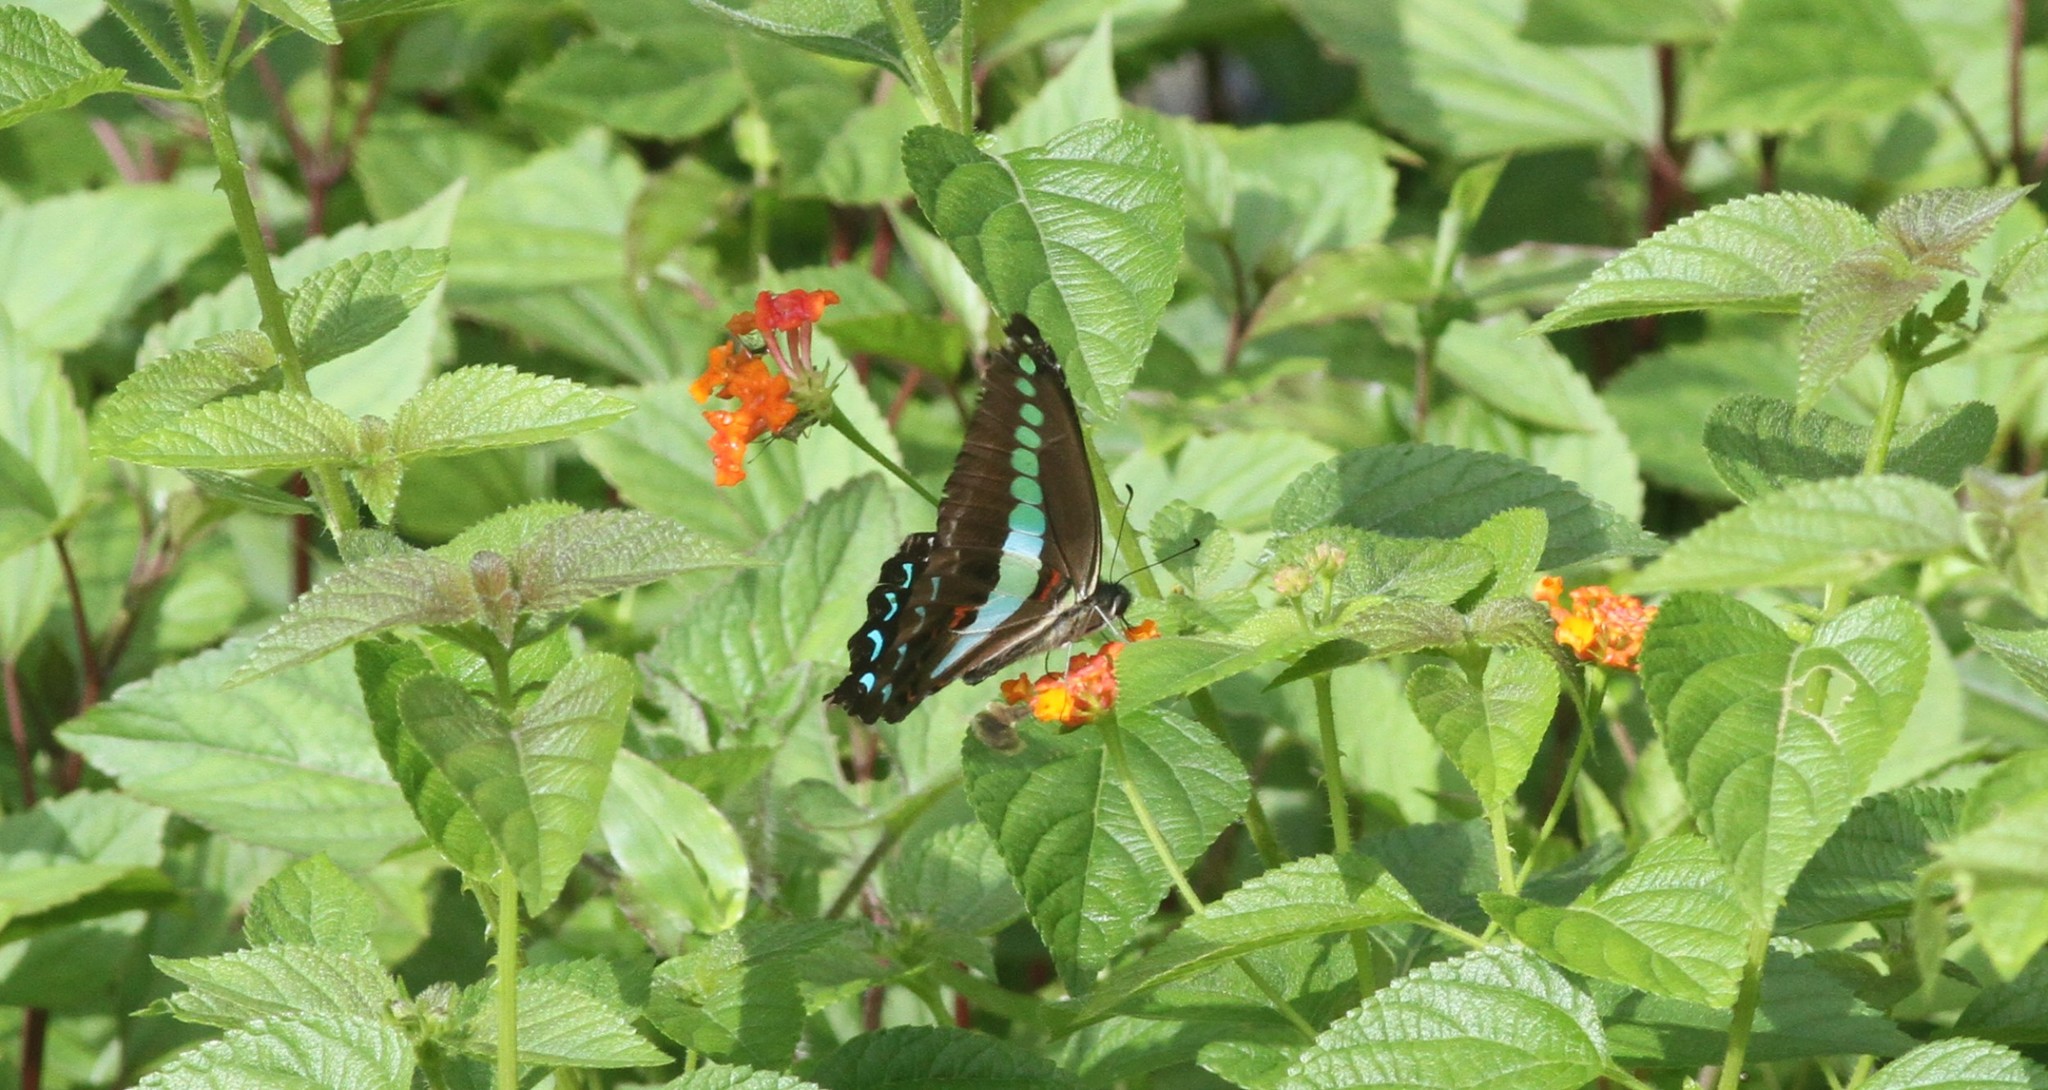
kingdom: Animalia
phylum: Arthropoda
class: Insecta
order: Lepidoptera
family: Papilionidae
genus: Graphium
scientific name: Graphium
